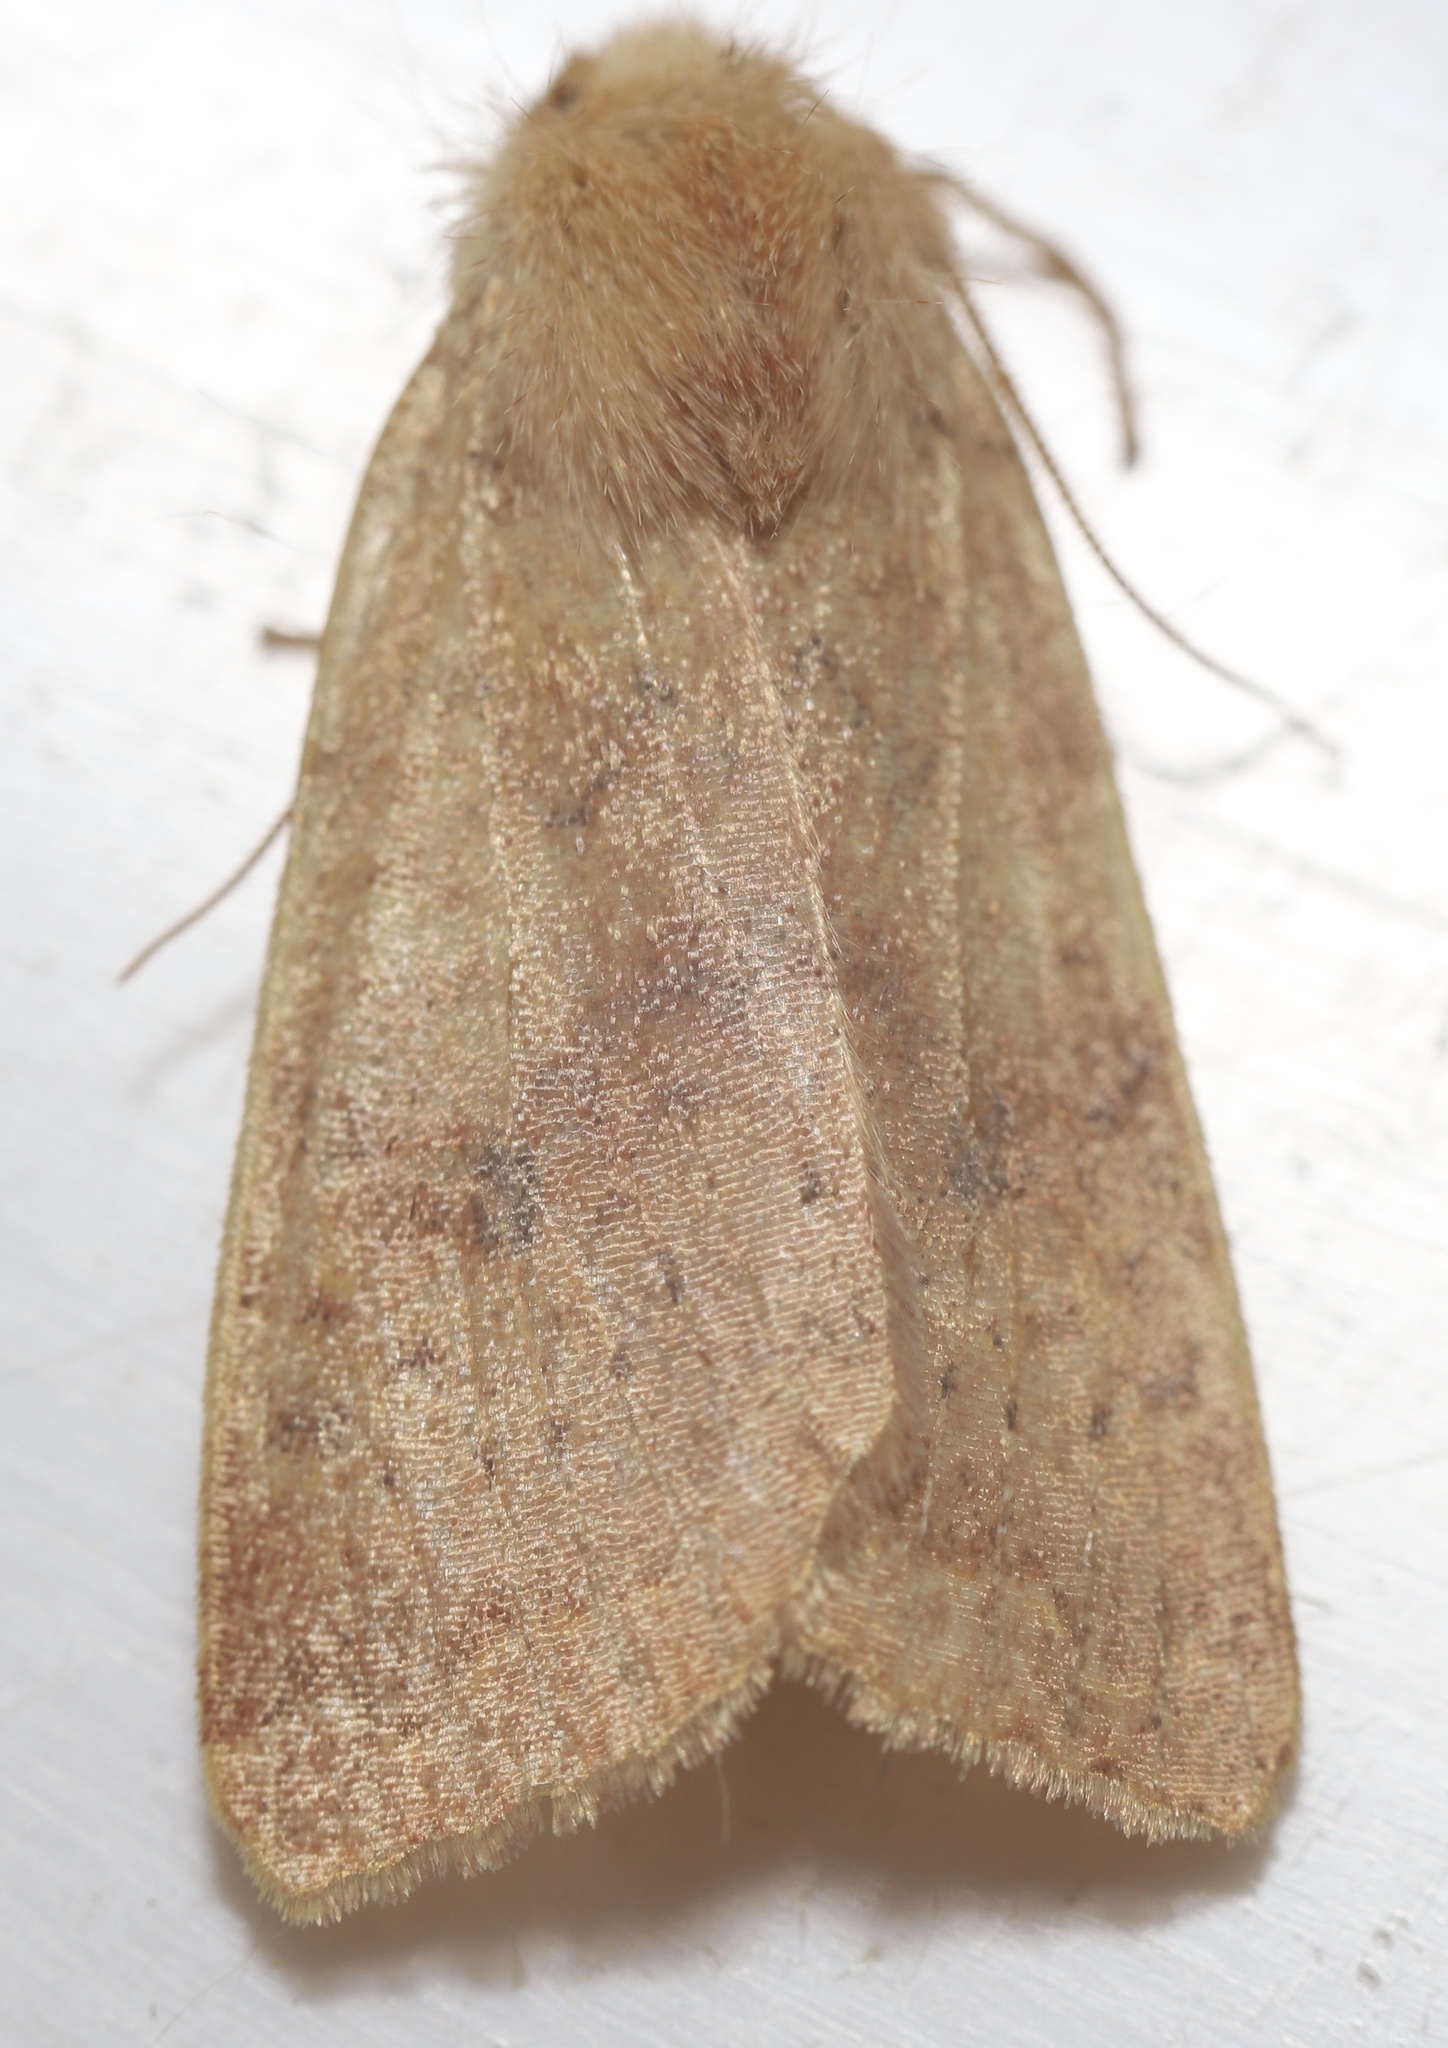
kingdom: Animalia
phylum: Arthropoda
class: Insecta
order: Lepidoptera
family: Noctuidae
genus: Agrochola
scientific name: Agrochola bicolorago
